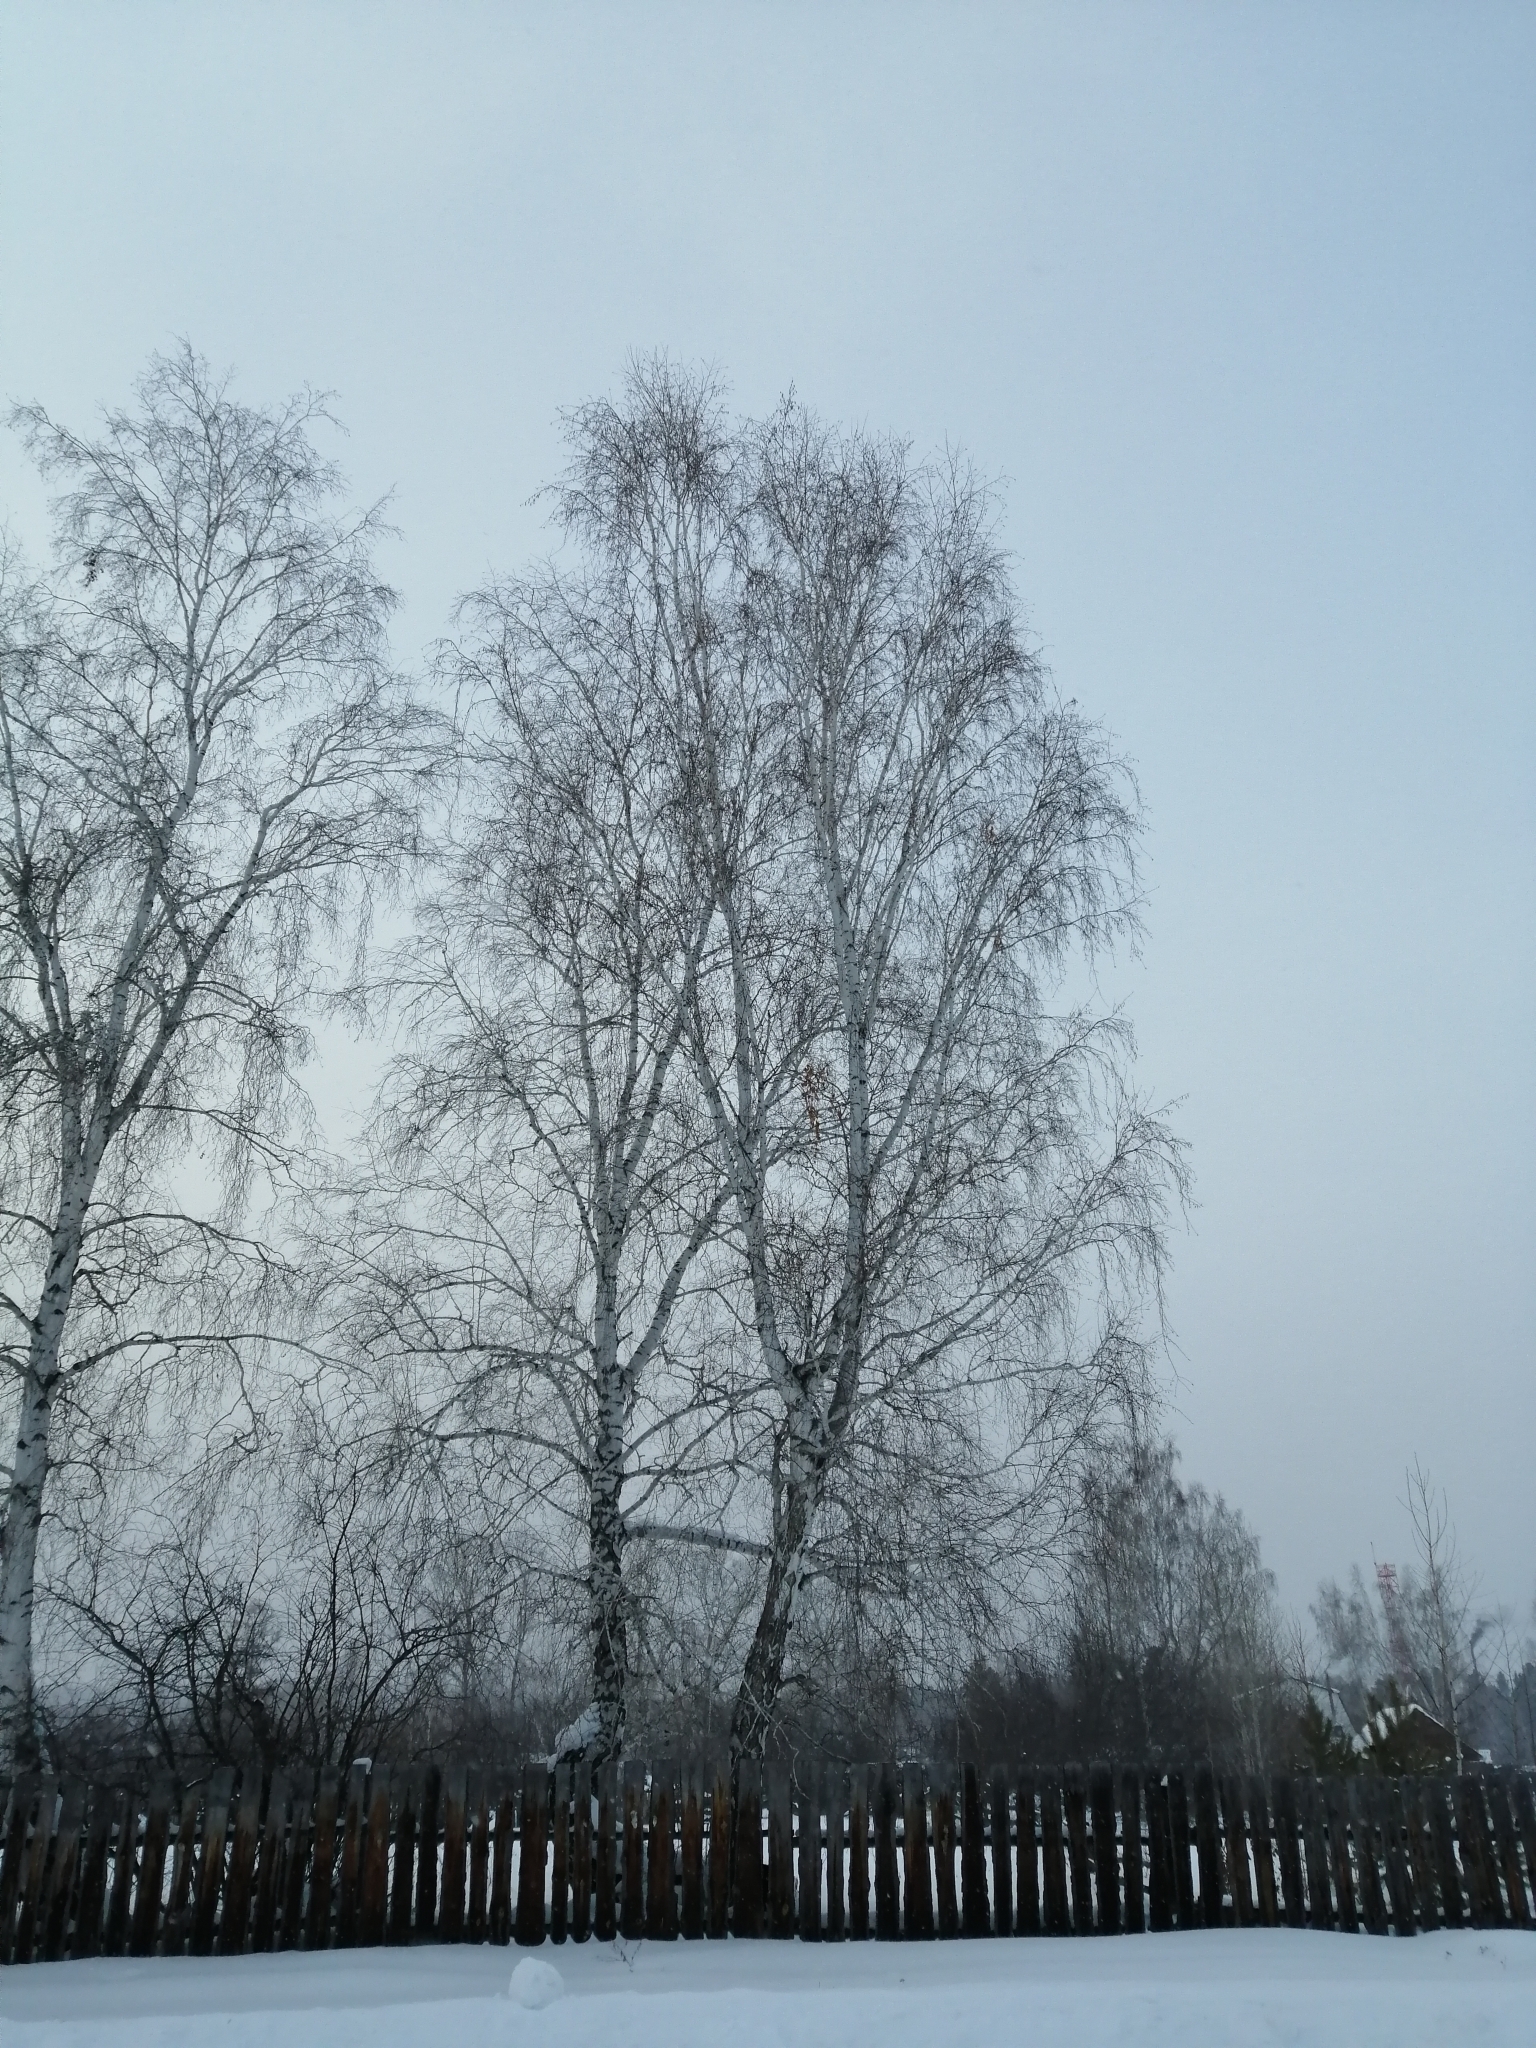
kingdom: Plantae
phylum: Tracheophyta
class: Magnoliopsida
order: Fagales
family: Betulaceae
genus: Betula
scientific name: Betula pendula
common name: Silver birch
